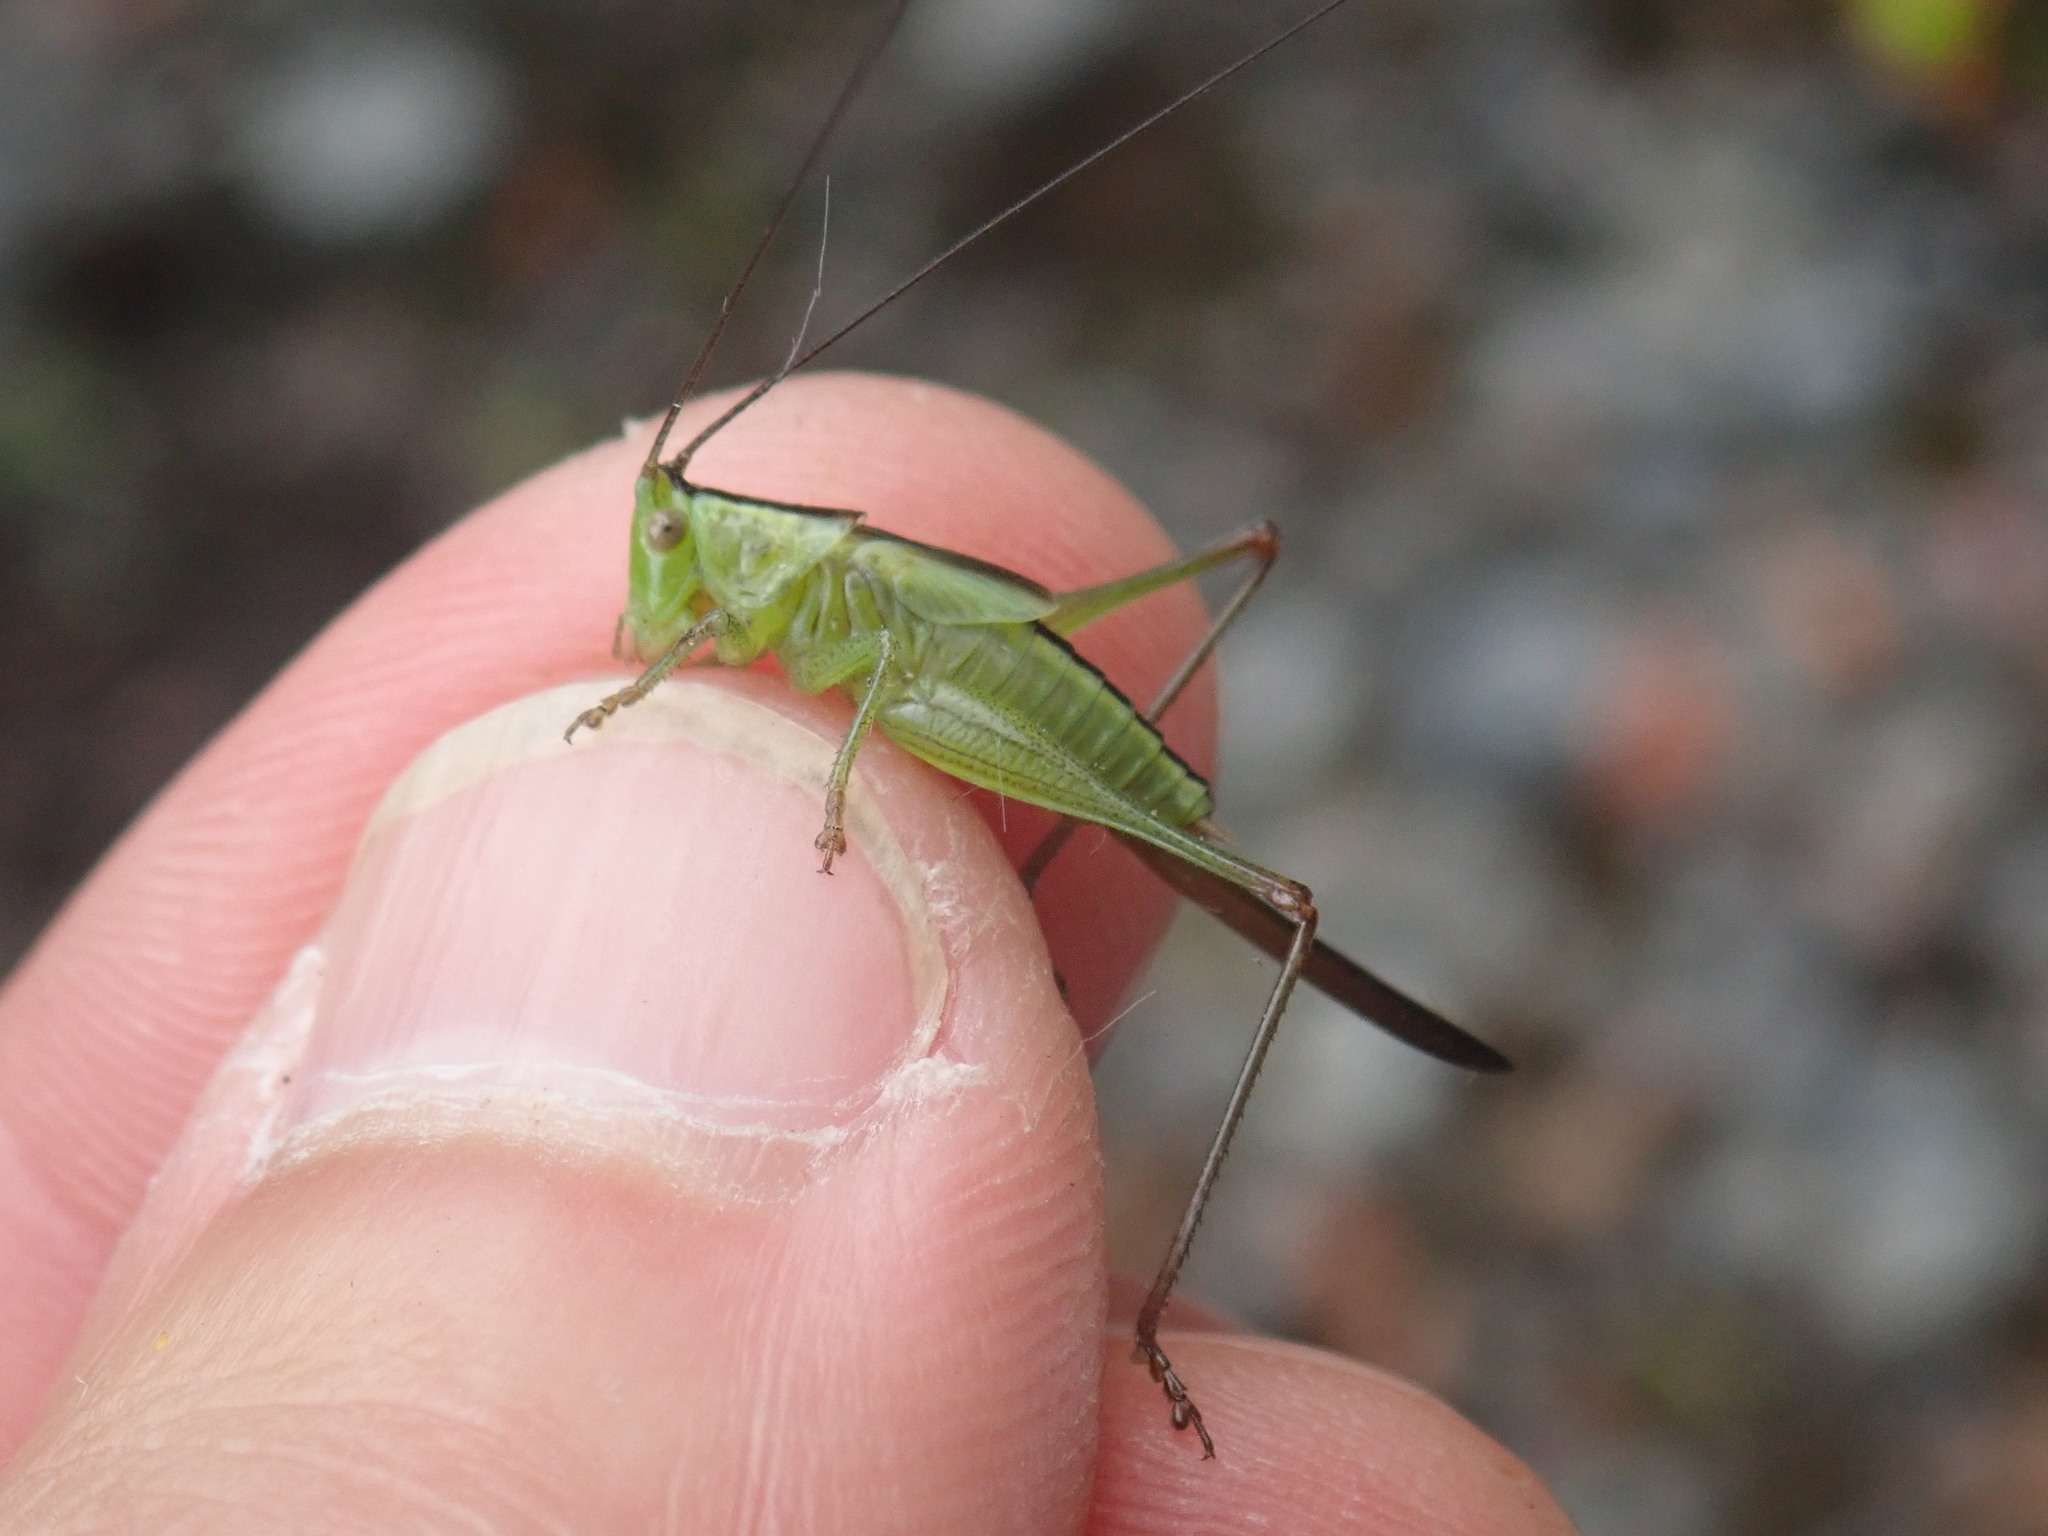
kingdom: Animalia
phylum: Arthropoda
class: Insecta
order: Orthoptera
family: Tettigoniidae
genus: Conocephalus
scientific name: Conocephalus fuscus
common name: Long-winged conehead
